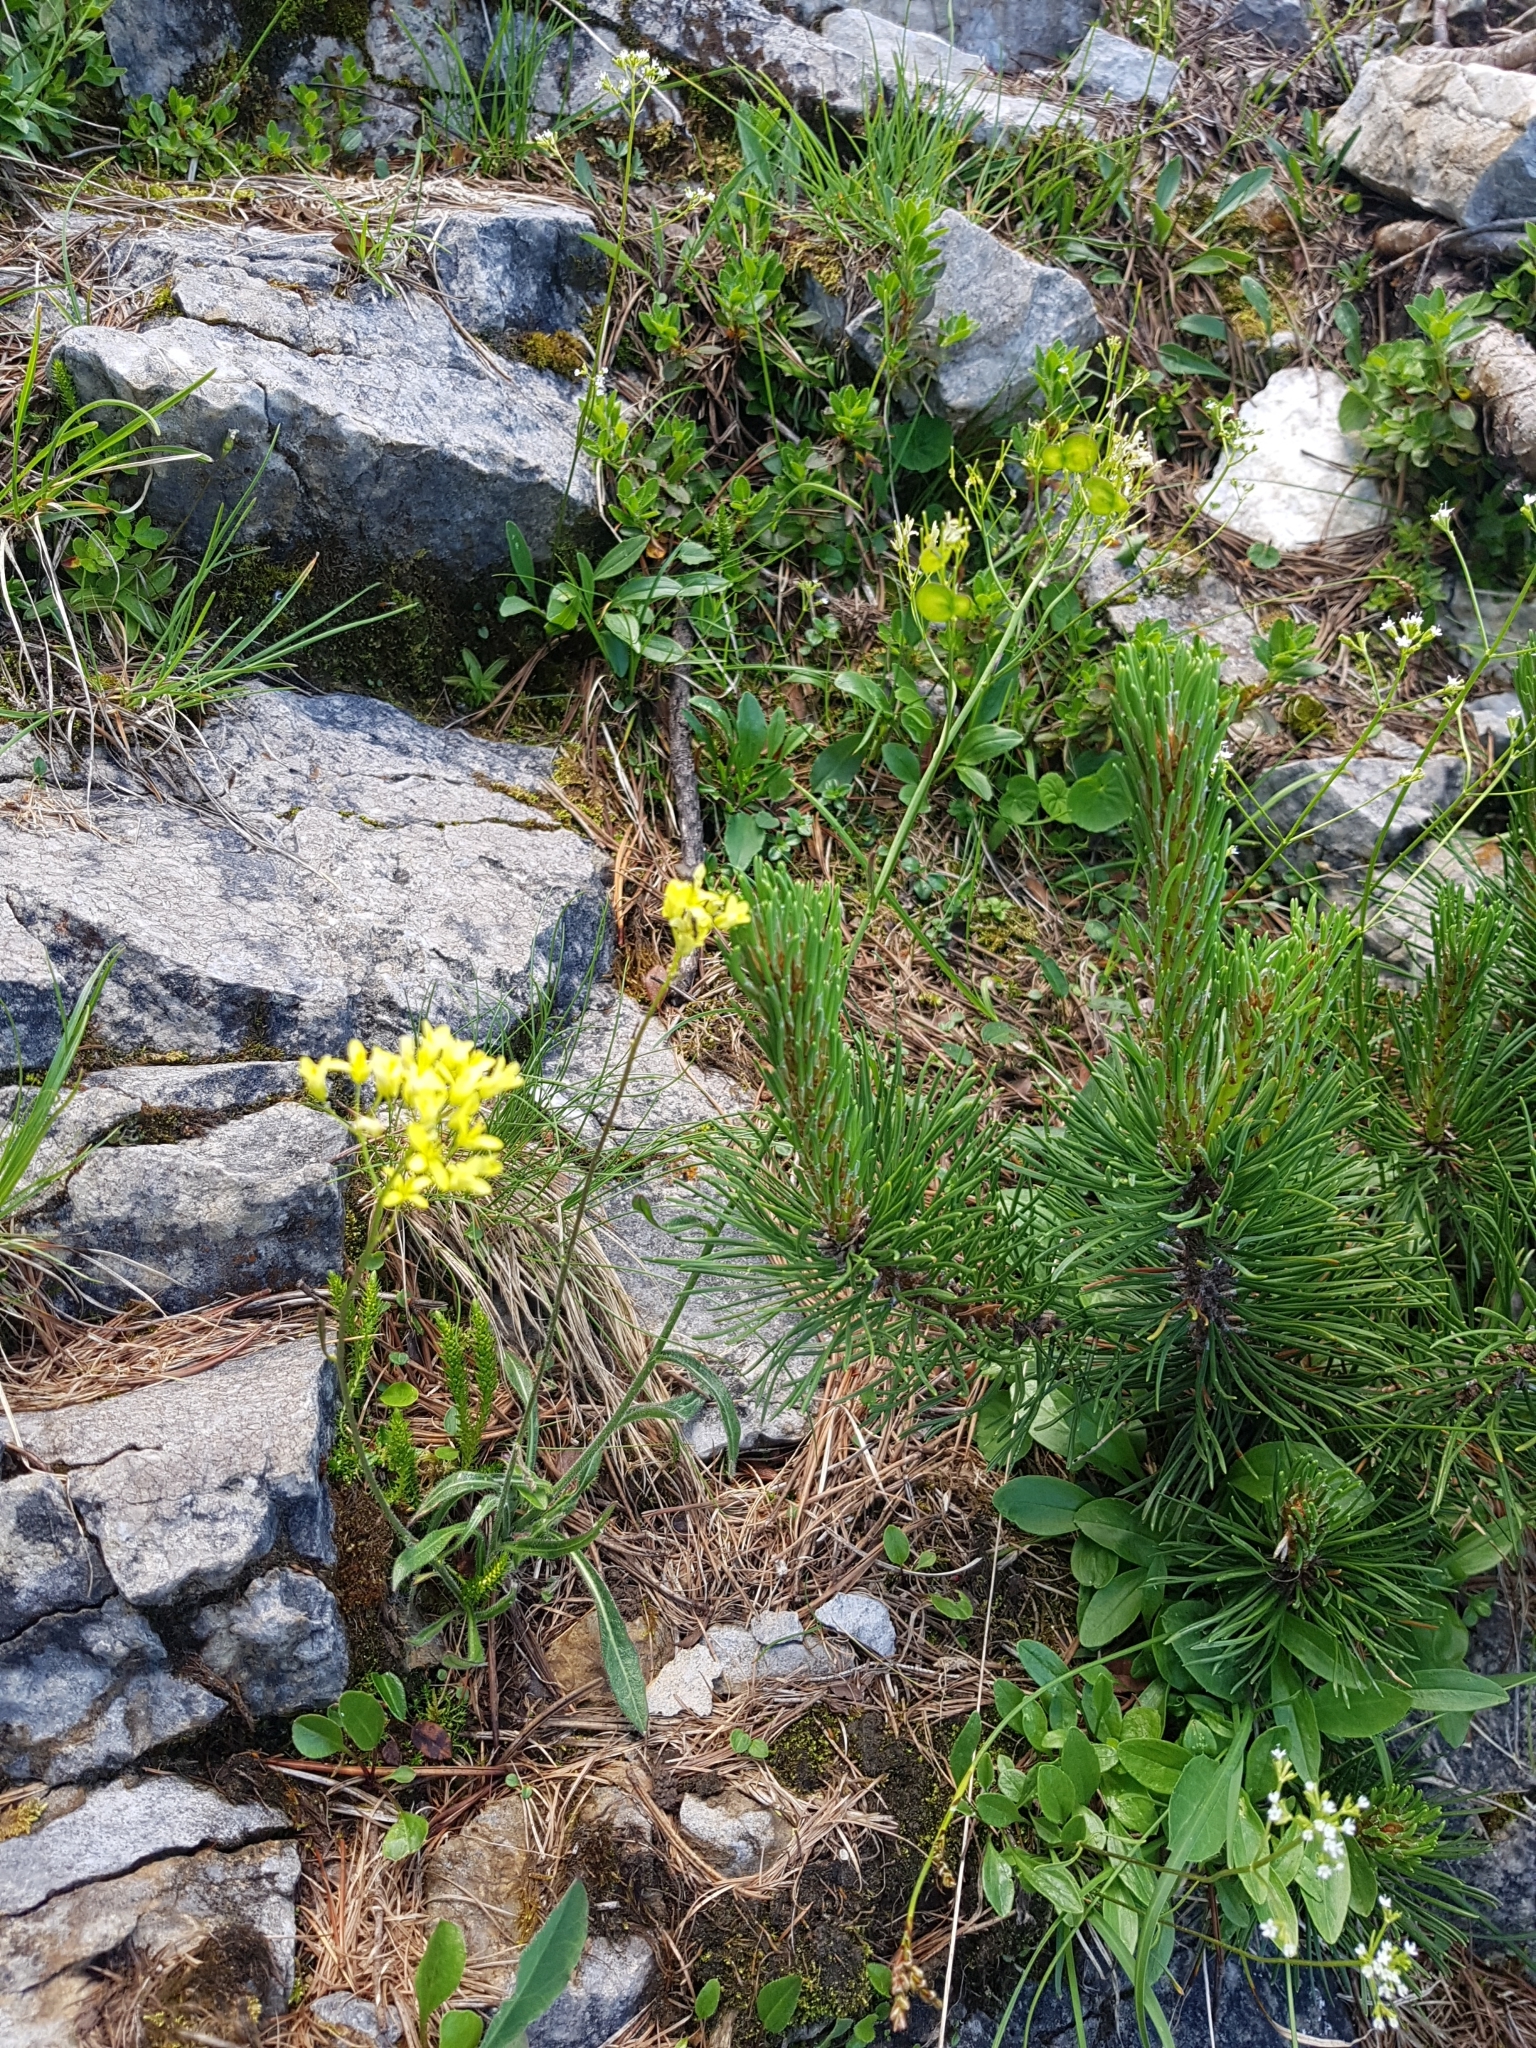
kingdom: Plantae
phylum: Tracheophyta
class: Magnoliopsida
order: Brassicales
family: Brassicaceae
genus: Biscutella
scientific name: Biscutella laevigata
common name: Buckler mustard
